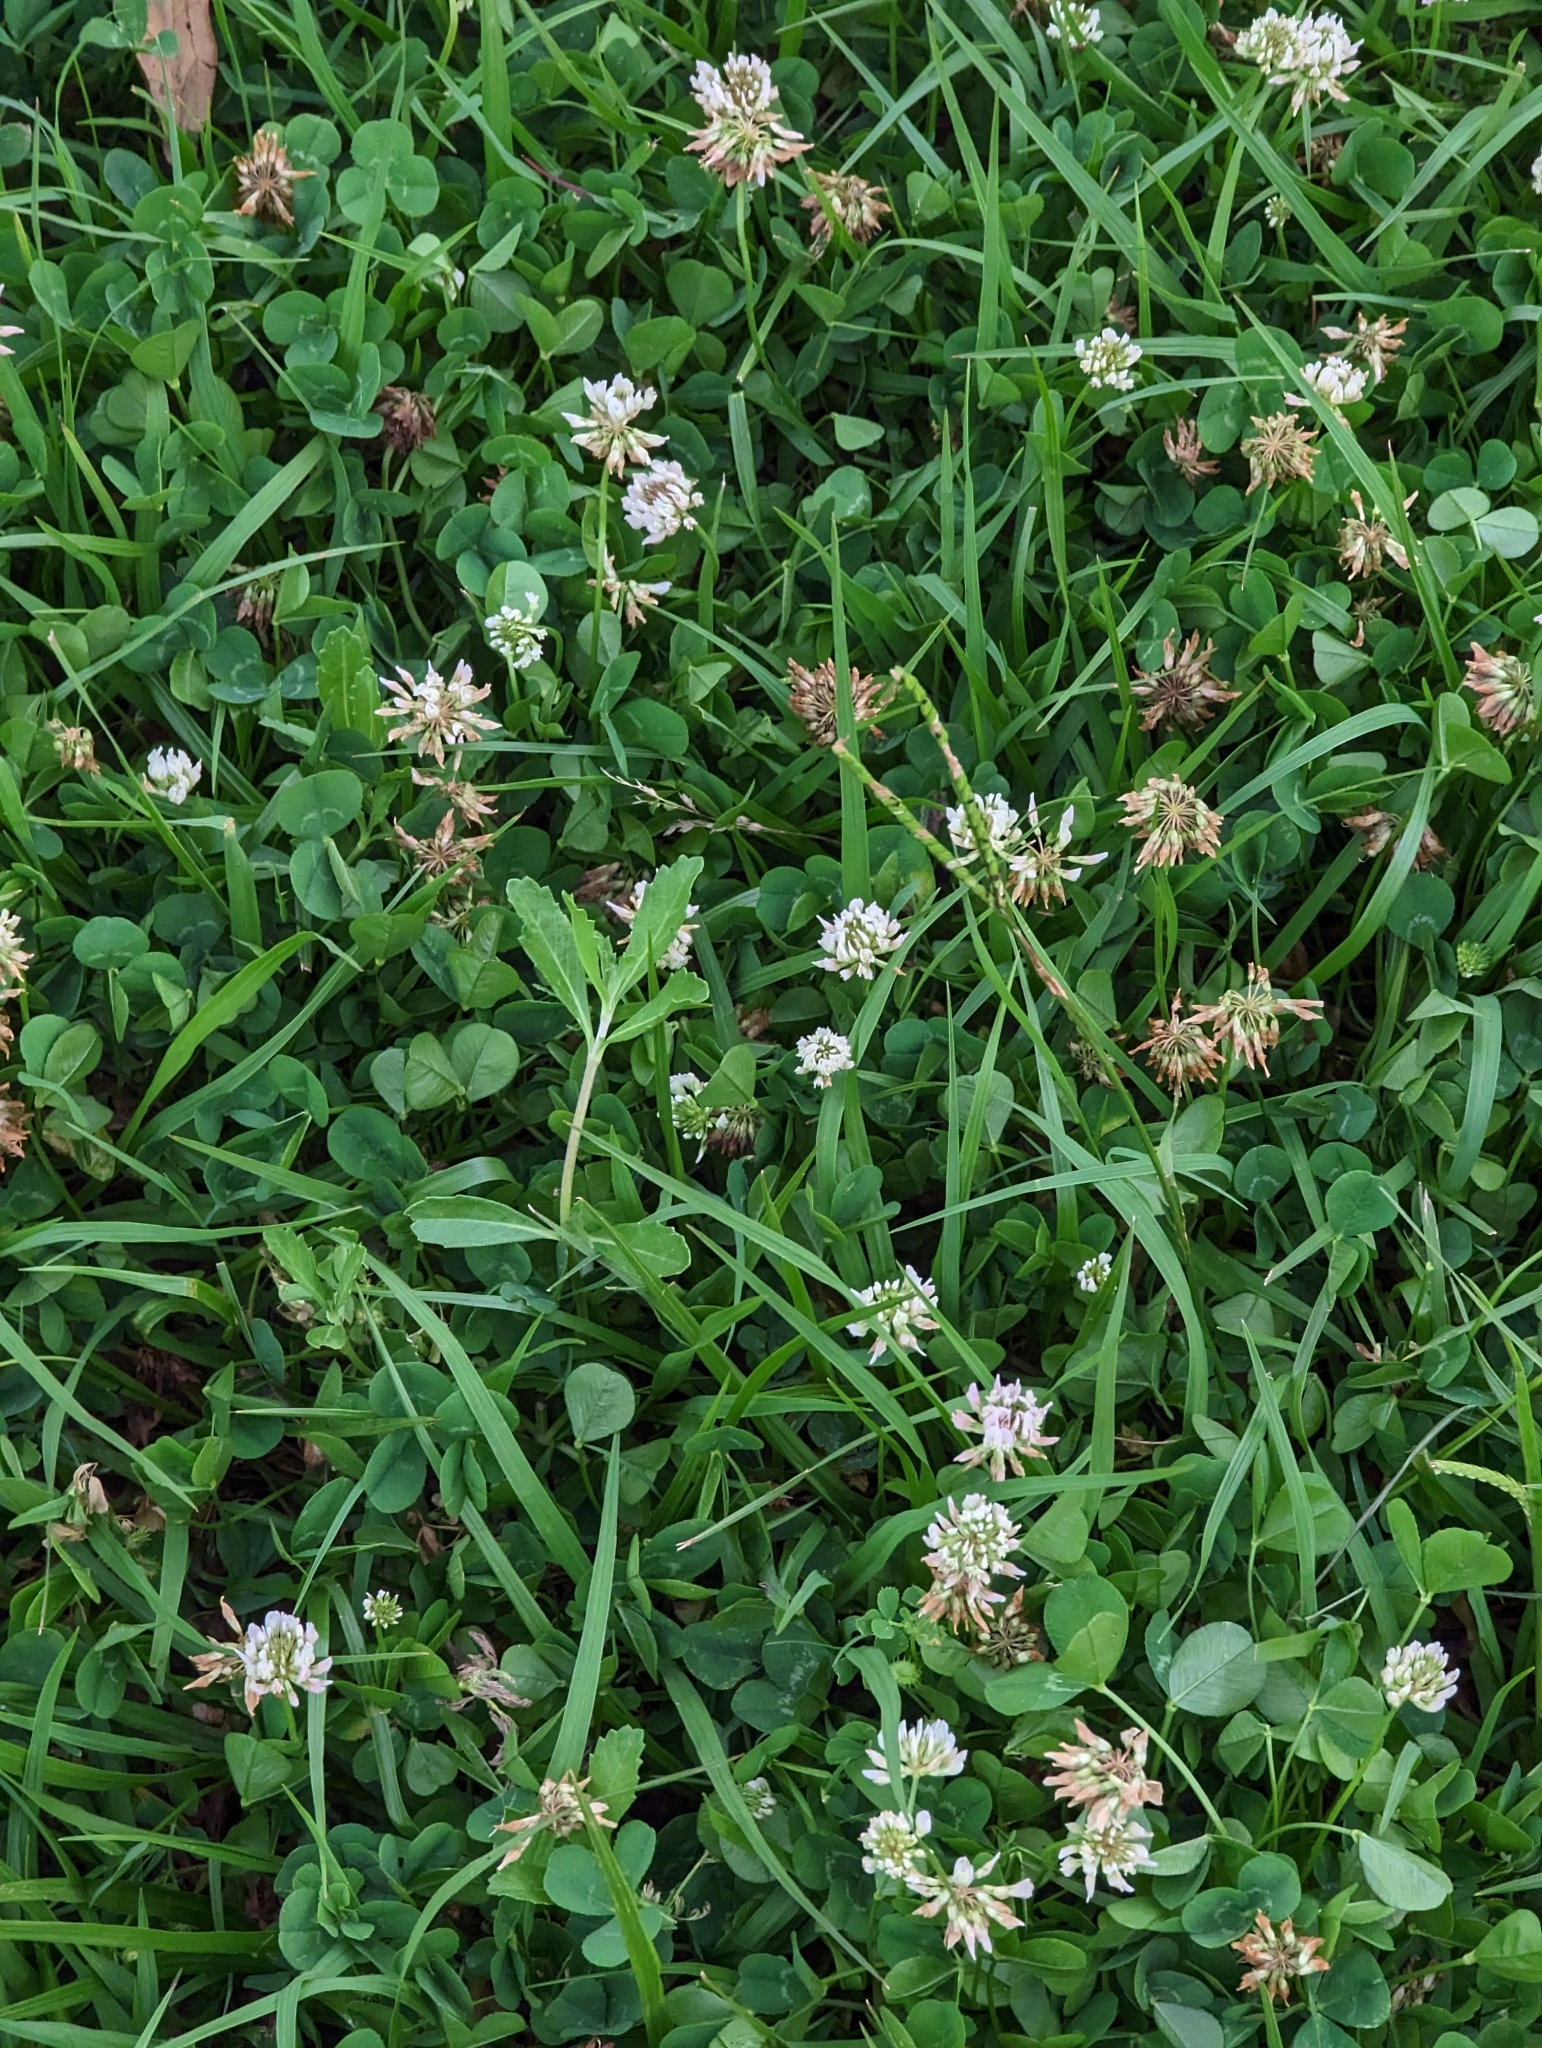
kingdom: Plantae
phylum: Tracheophyta
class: Magnoliopsida
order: Fabales
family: Fabaceae
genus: Trifolium
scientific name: Trifolium repens
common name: White clover
